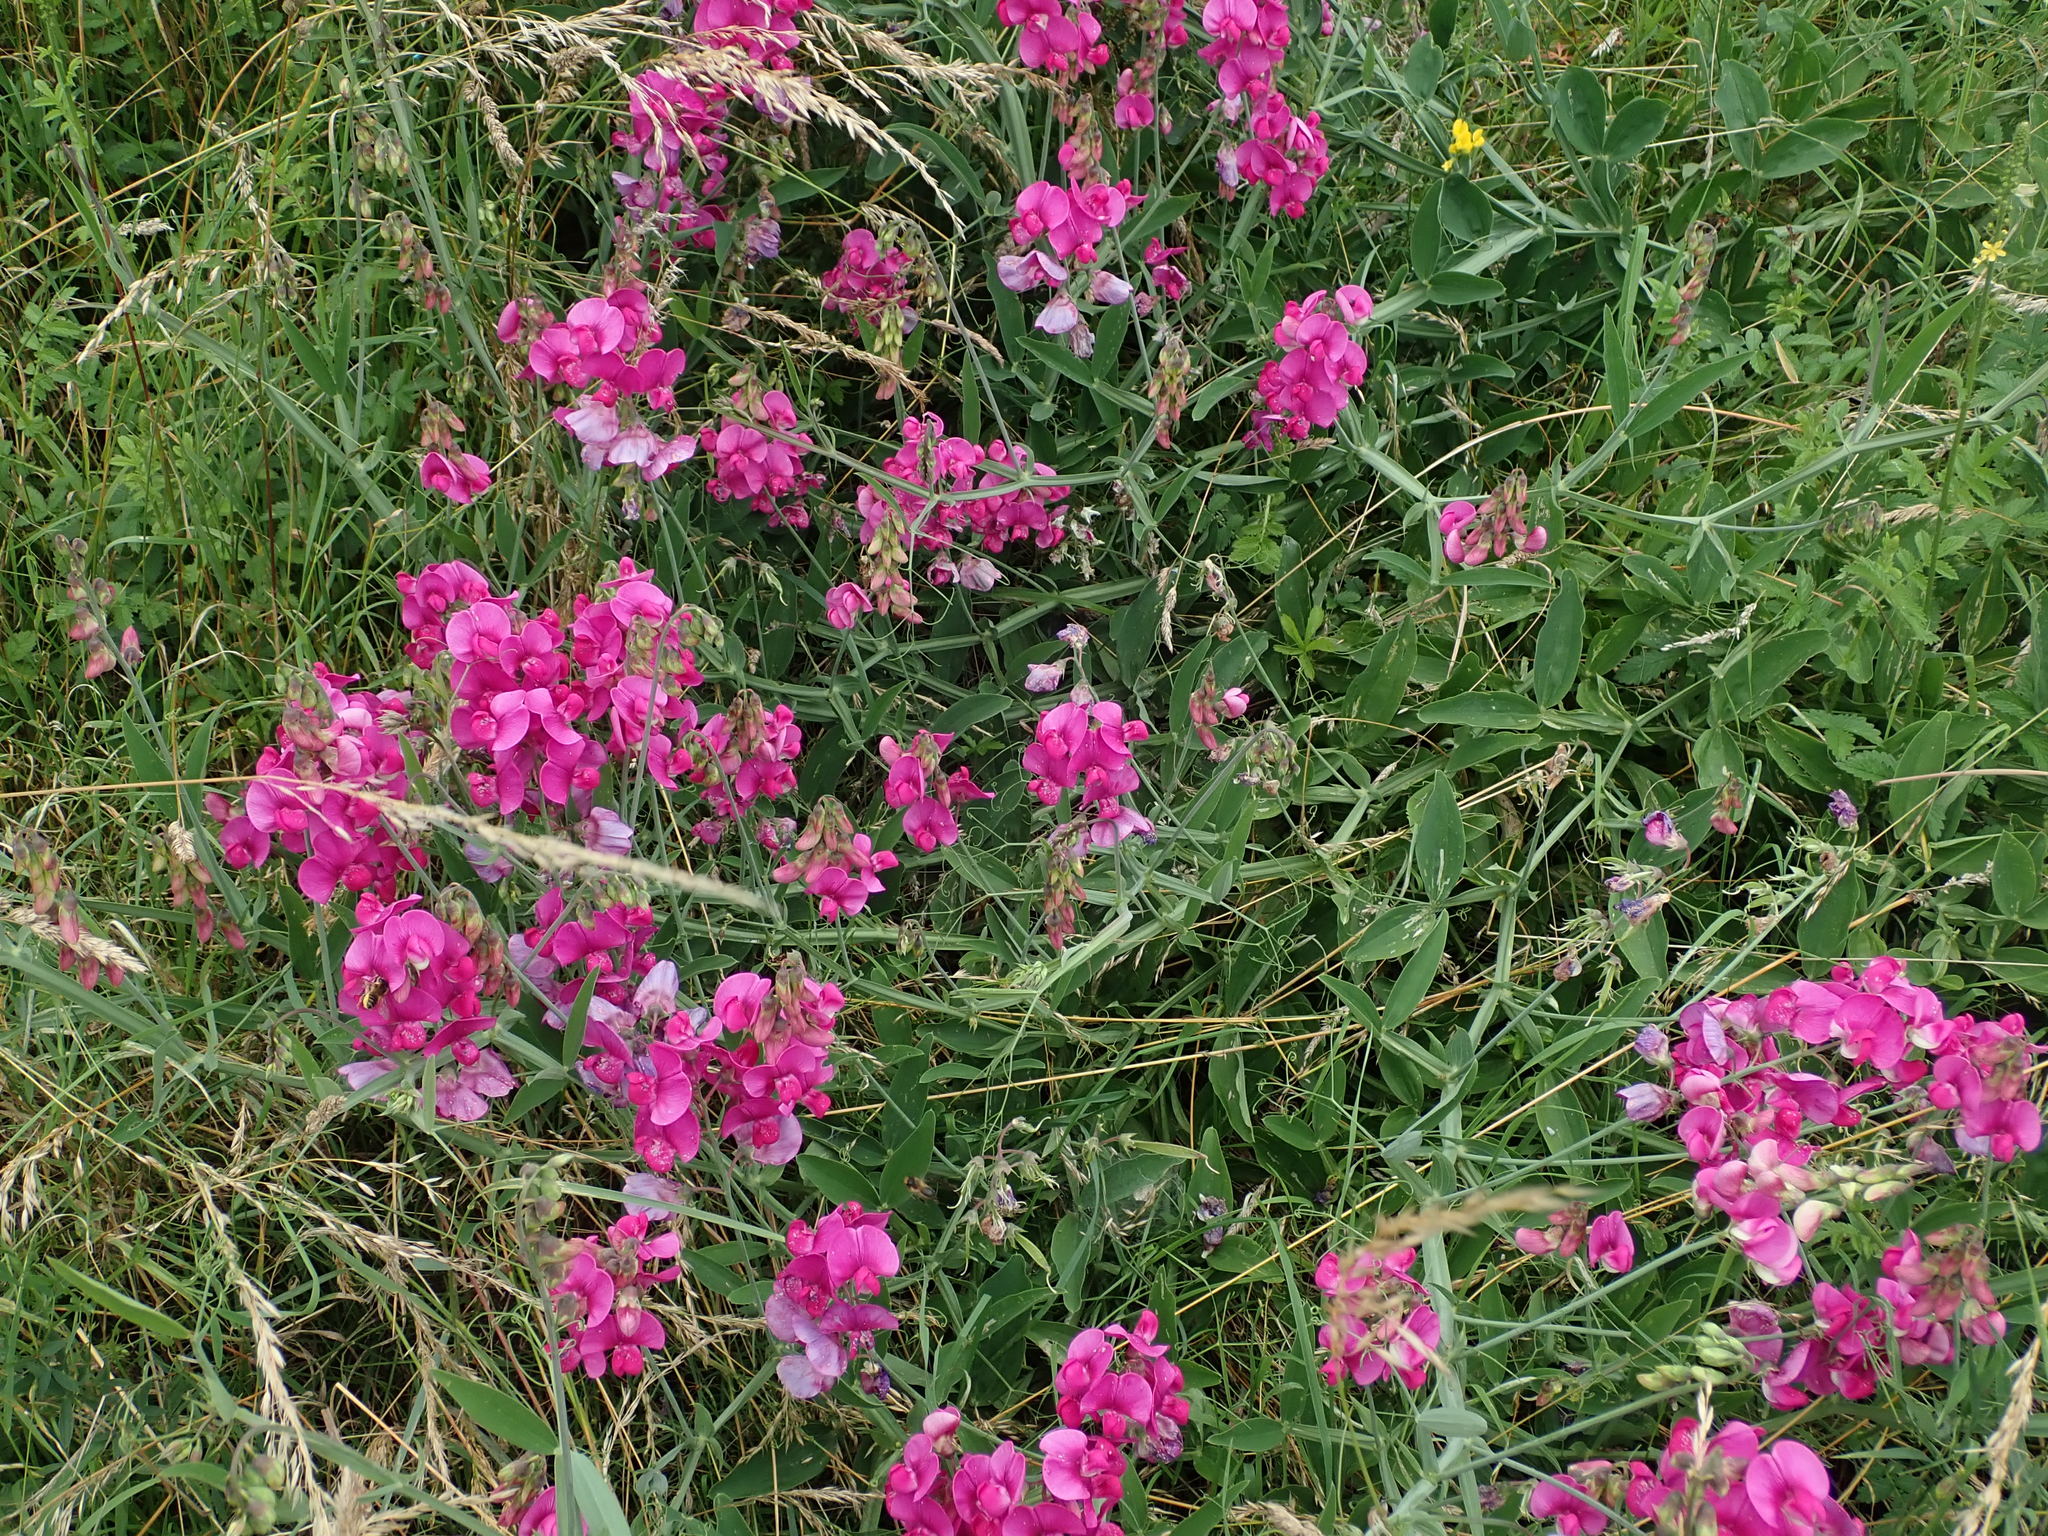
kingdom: Plantae
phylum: Tracheophyta
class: Magnoliopsida
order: Fabales
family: Fabaceae
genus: Lathyrus
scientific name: Lathyrus latifolius
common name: Perennial pea
